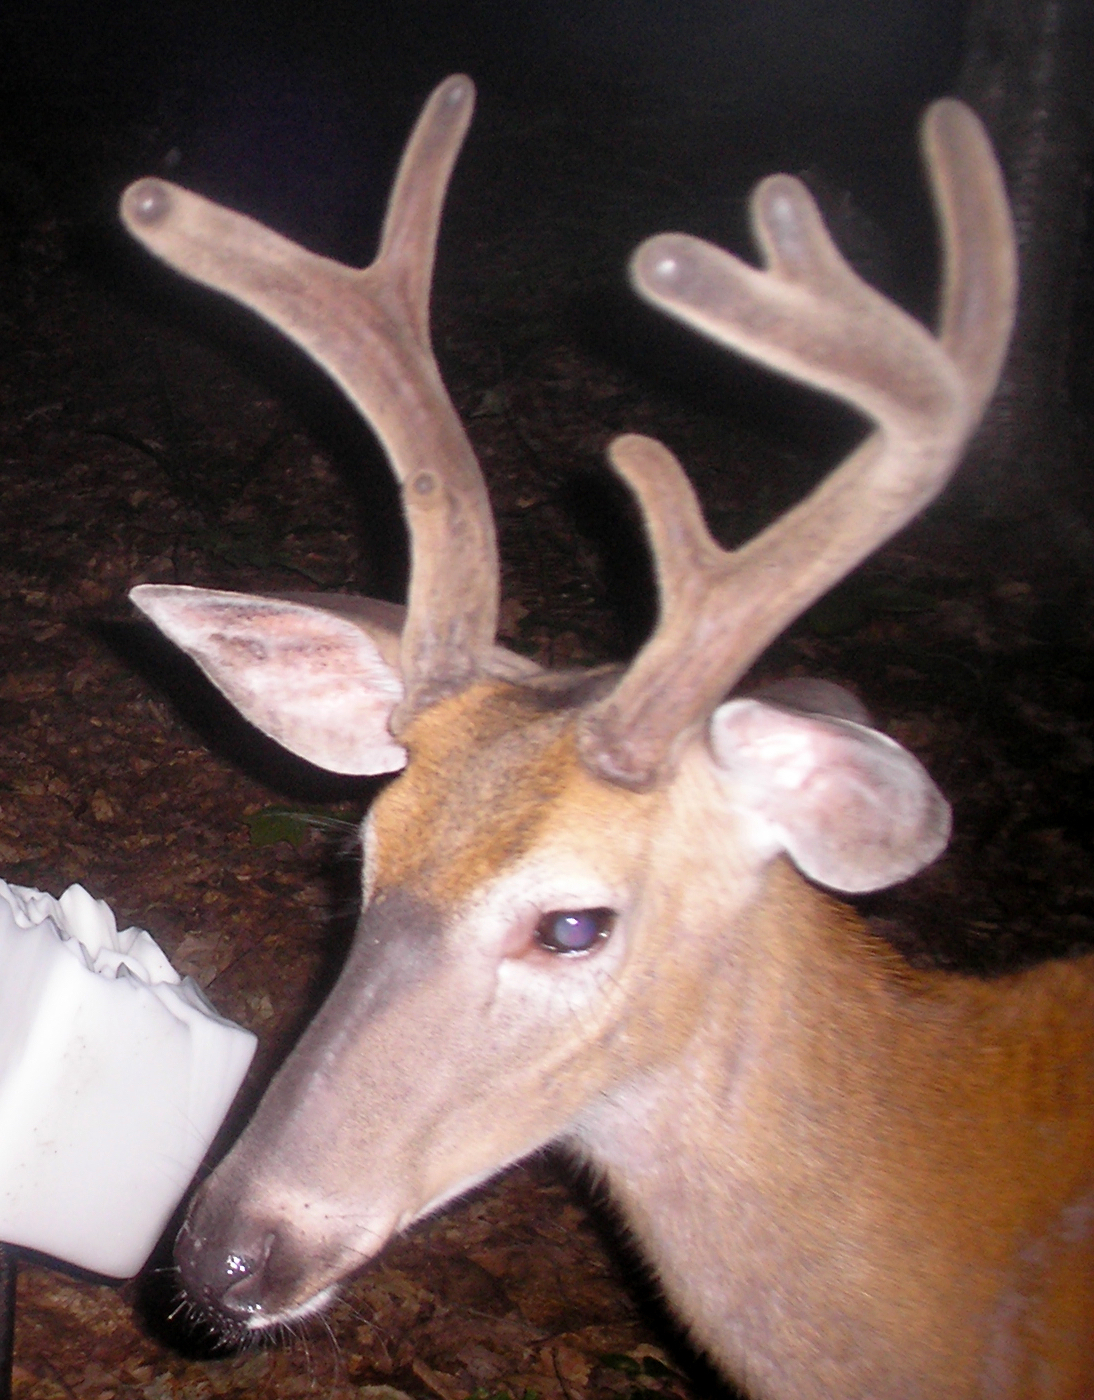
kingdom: Animalia
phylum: Chordata
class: Mammalia
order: Artiodactyla
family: Cervidae
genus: Odocoileus
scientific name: Odocoileus virginianus
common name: White-tailed deer
